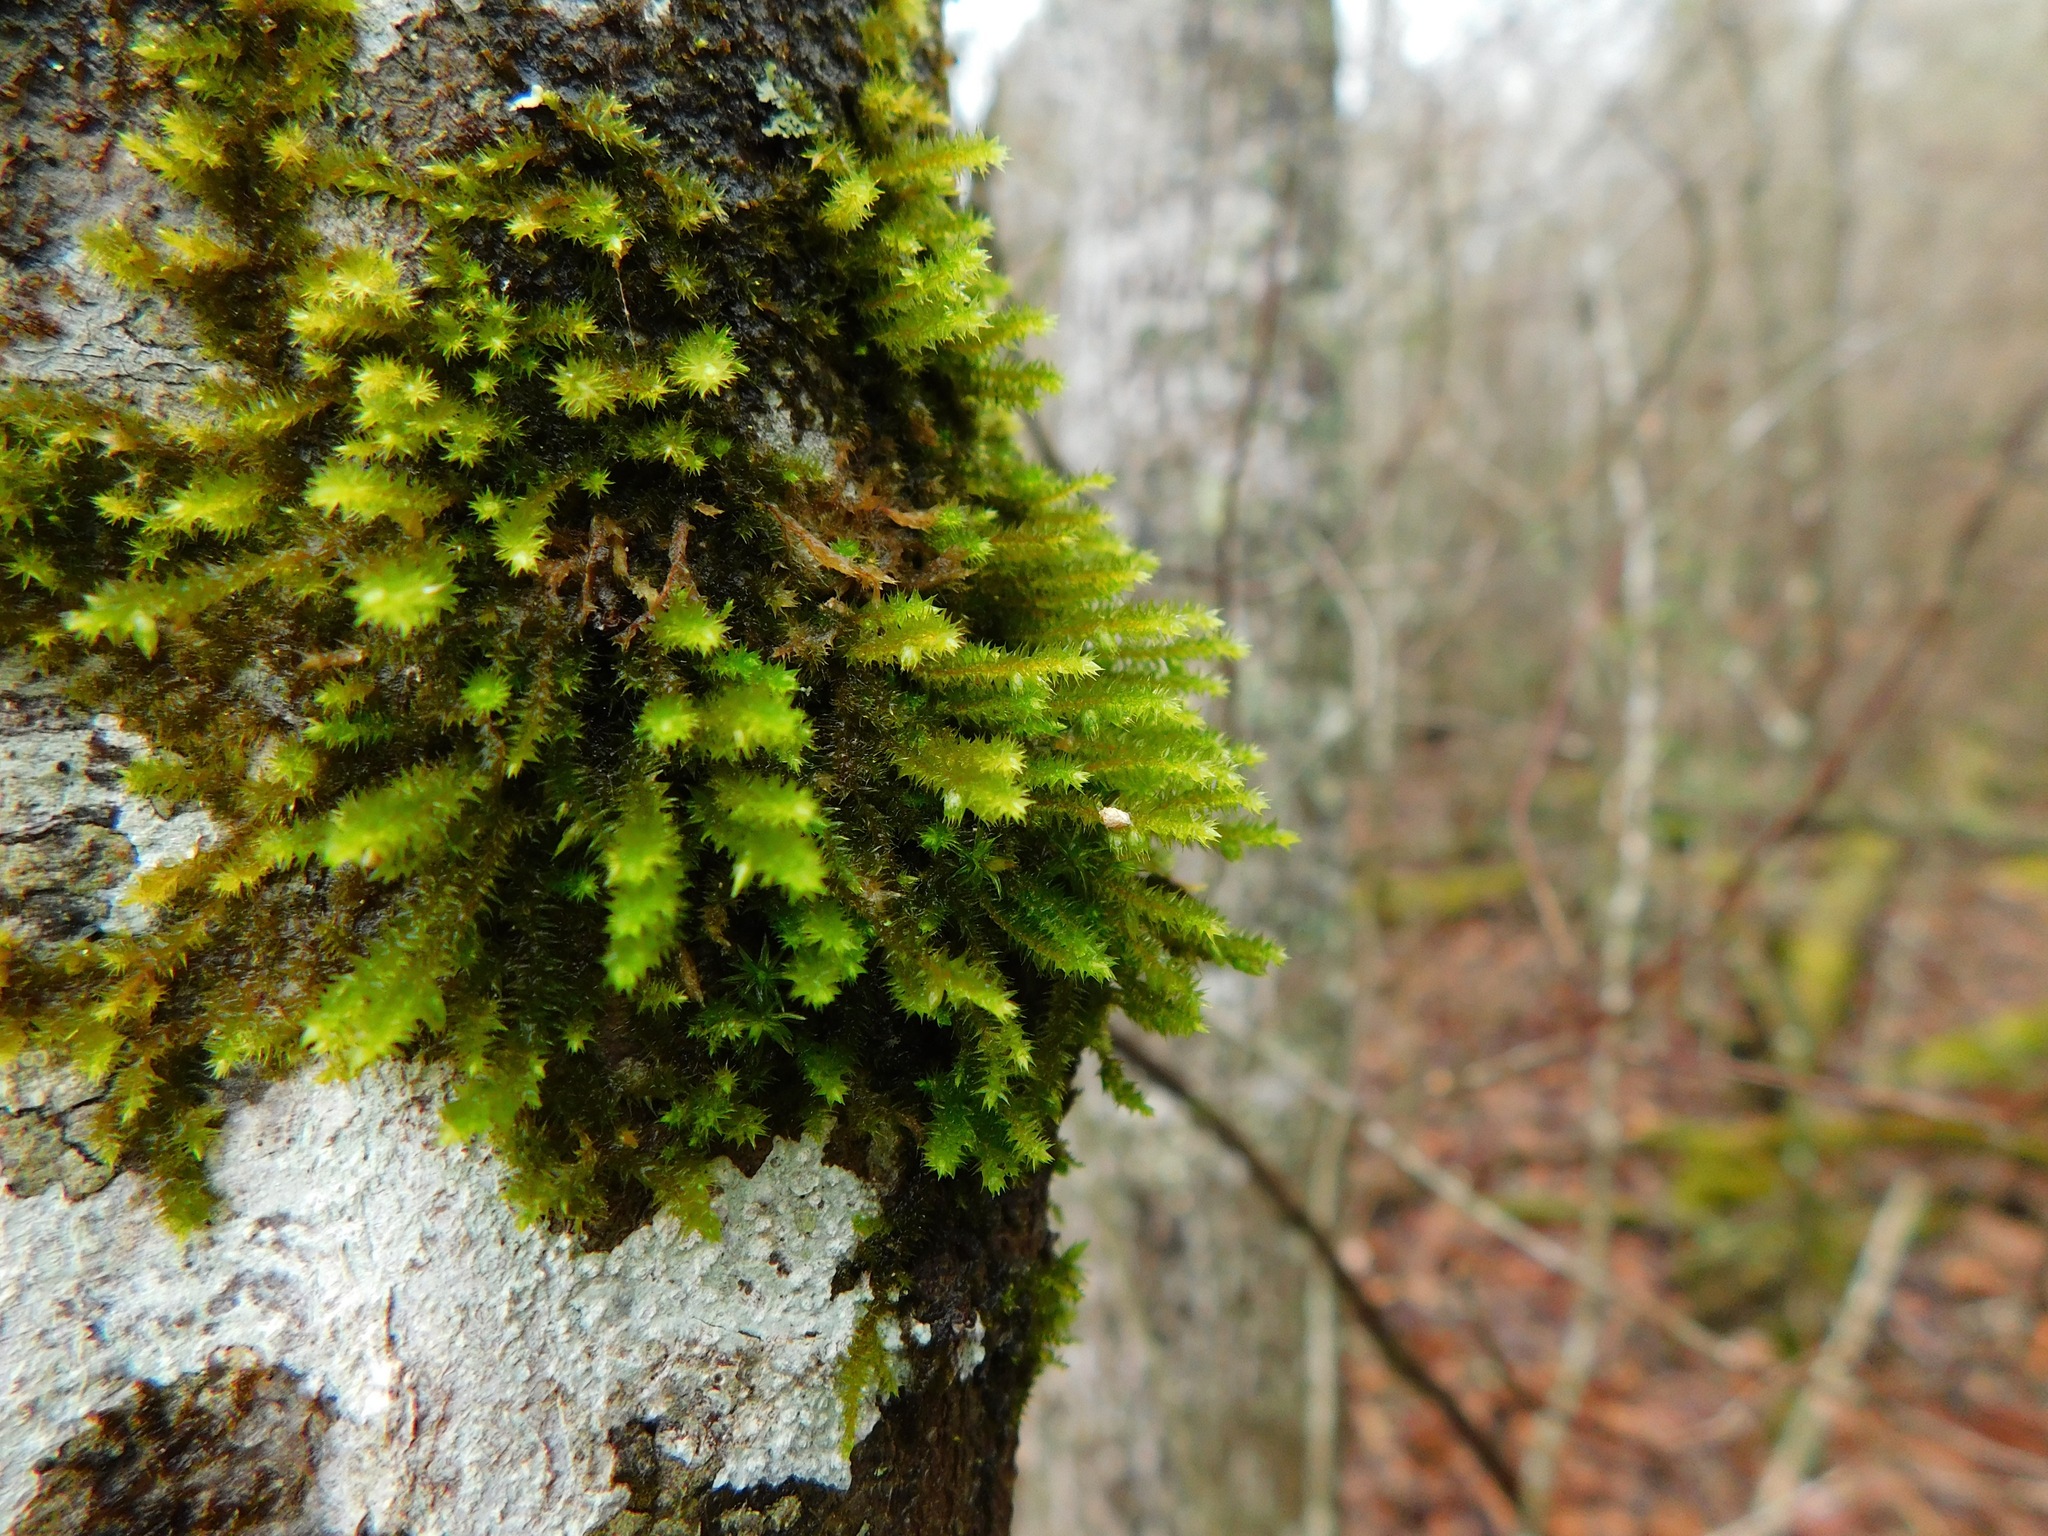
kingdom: Plantae
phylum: Bryophyta
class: Bryopsida
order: Hypnales
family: Leucodontaceae
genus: Leucodon
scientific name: Leucodon sciuroides
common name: Squirrel-tail moss
